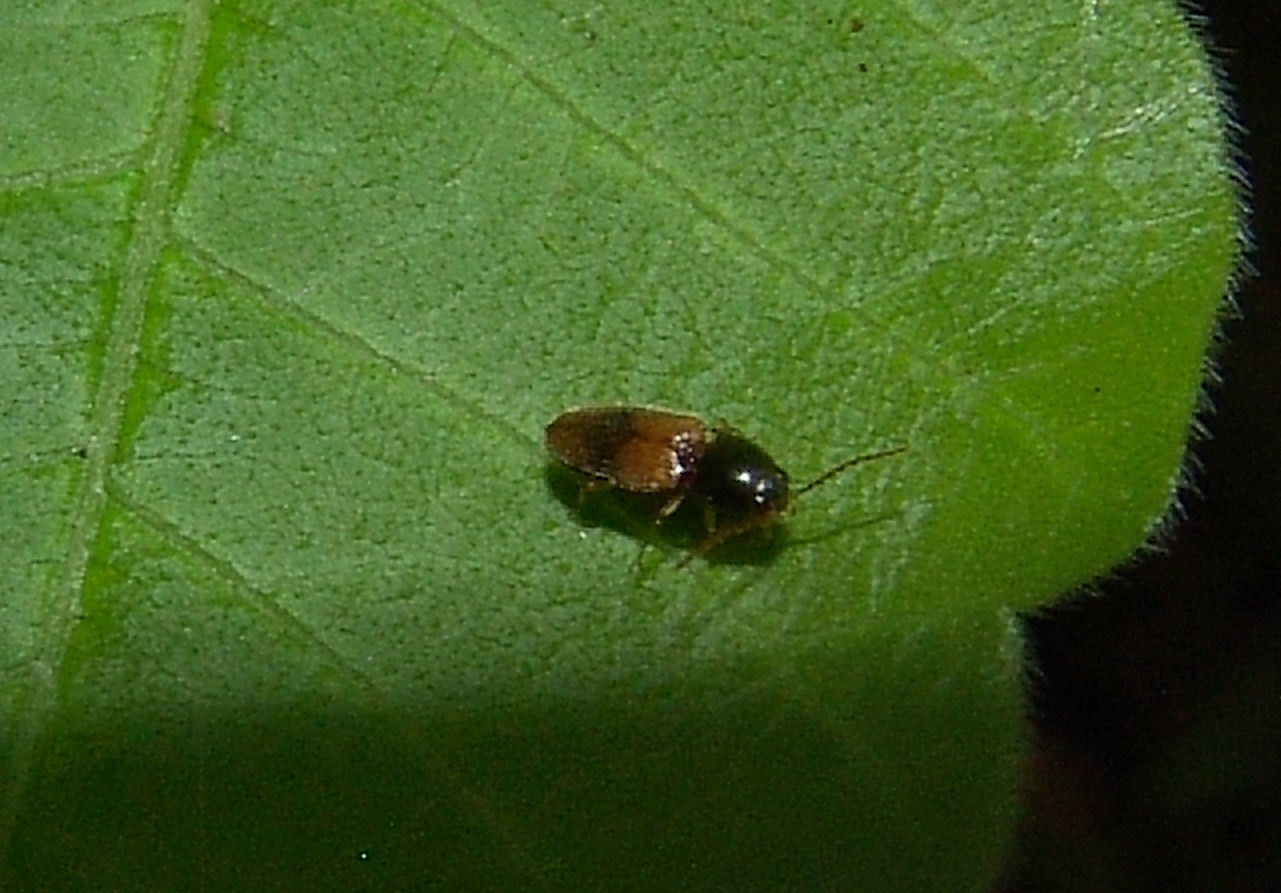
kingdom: Animalia
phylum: Arthropoda
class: Insecta
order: Coleoptera
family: Elateridae
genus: Horistonotus
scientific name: Horistonotus curiatus
